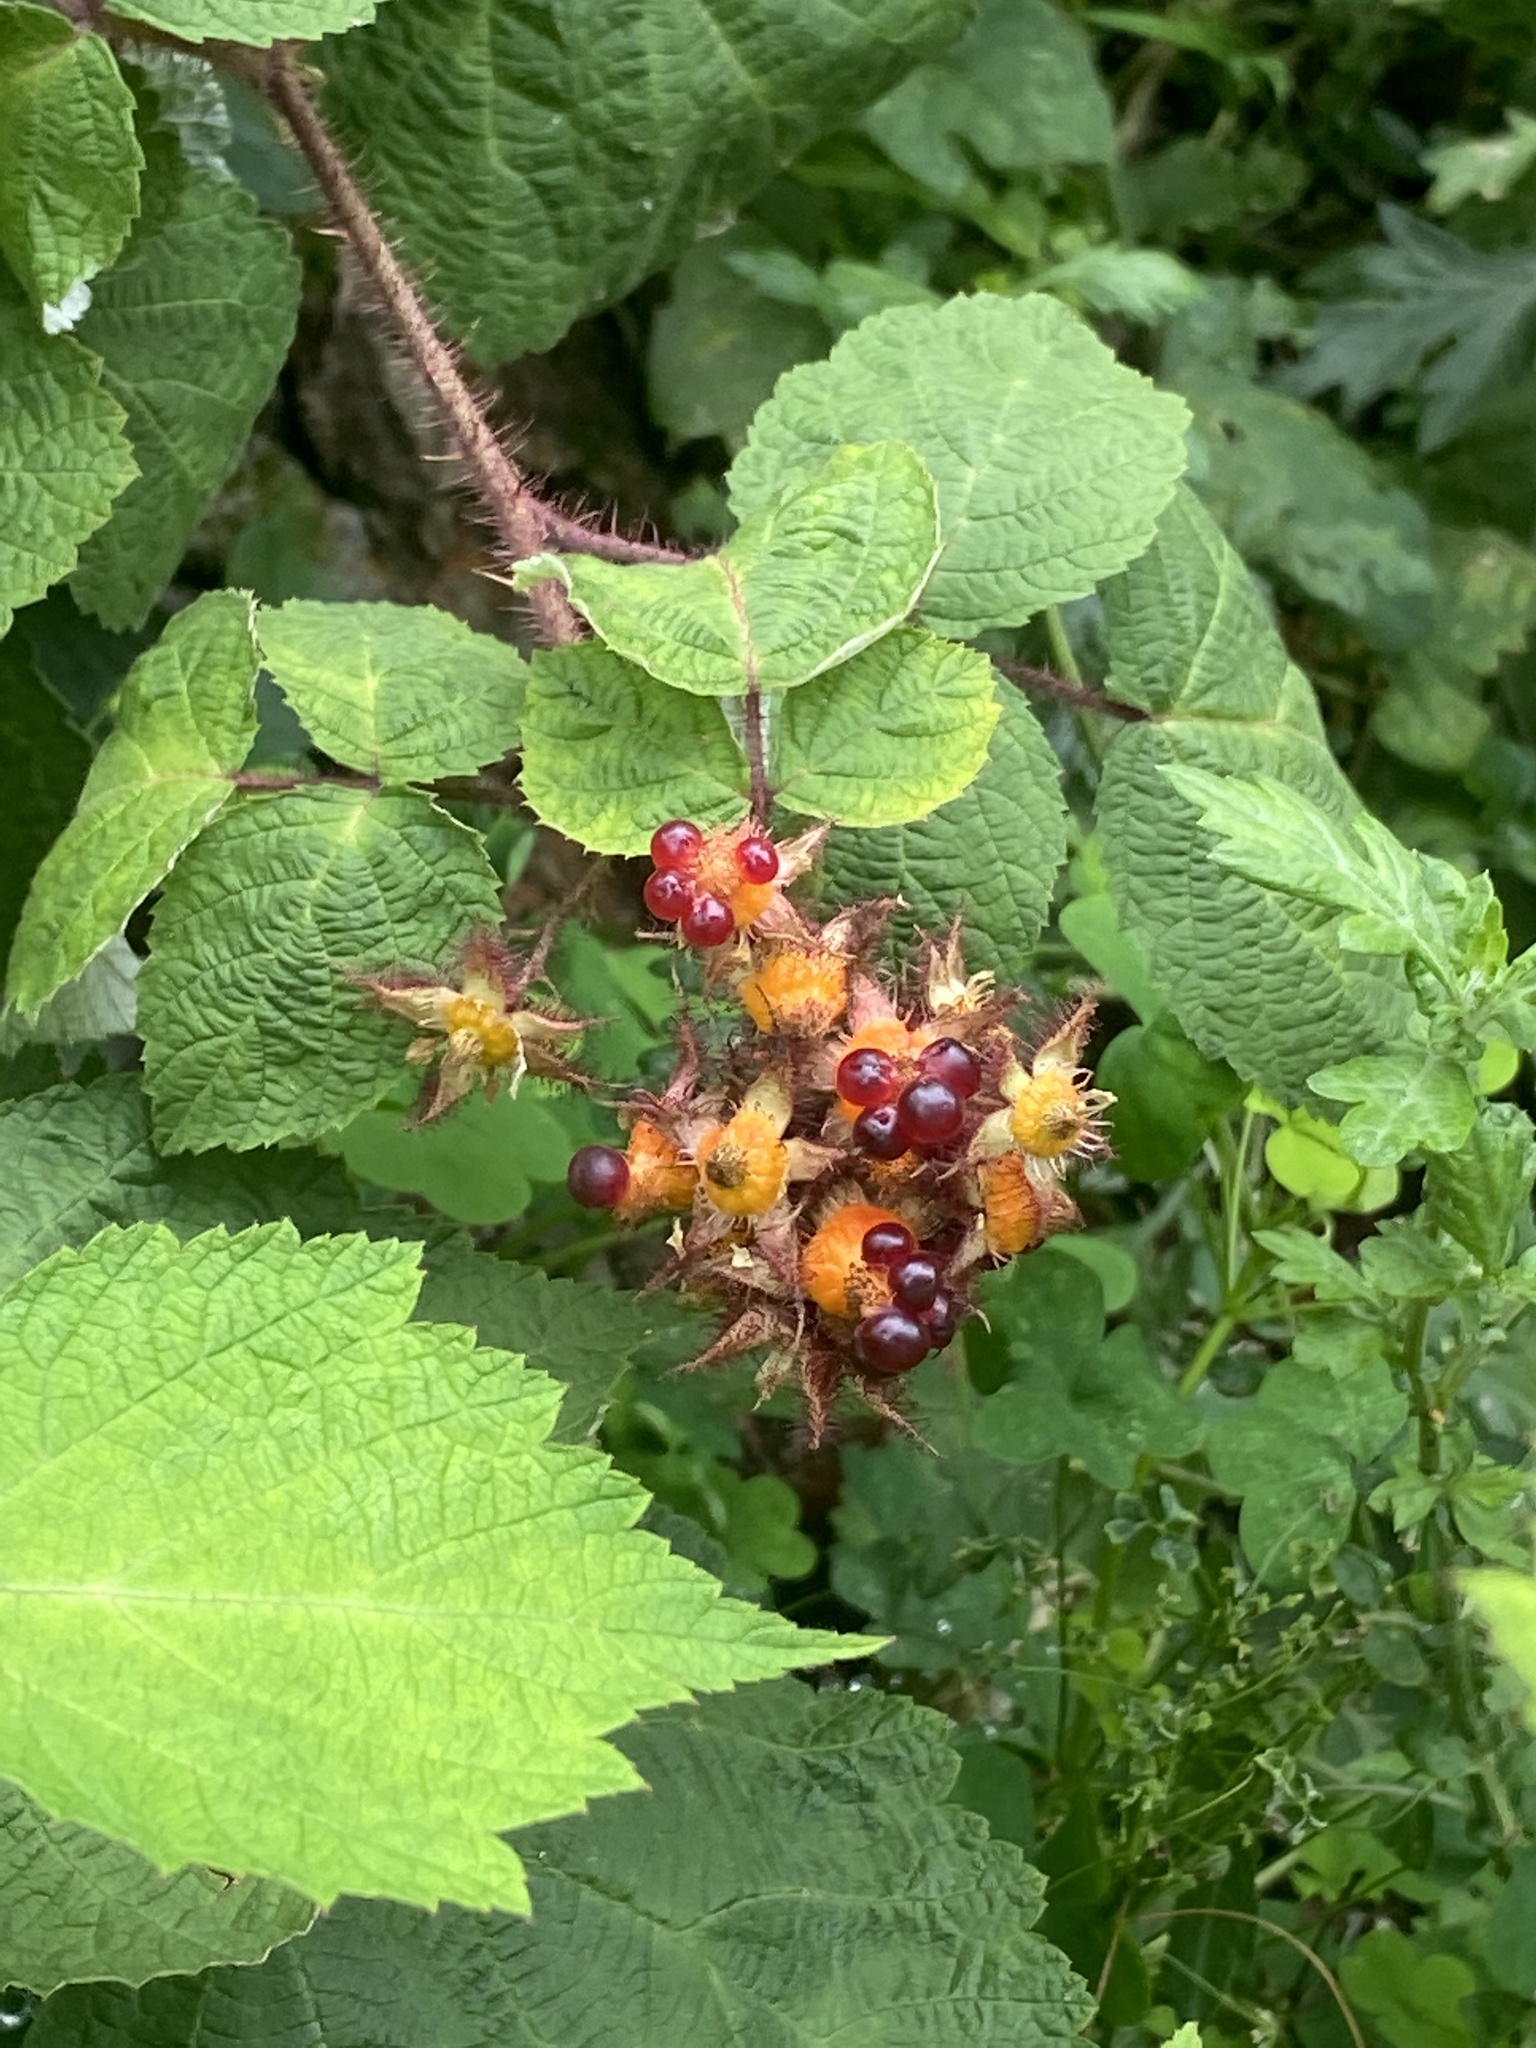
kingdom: Plantae
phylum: Tracheophyta
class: Magnoliopsida
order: Rosales
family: Rosaceae
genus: Rubus
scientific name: Rubus phoenicolasius
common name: Japanese wineberry
